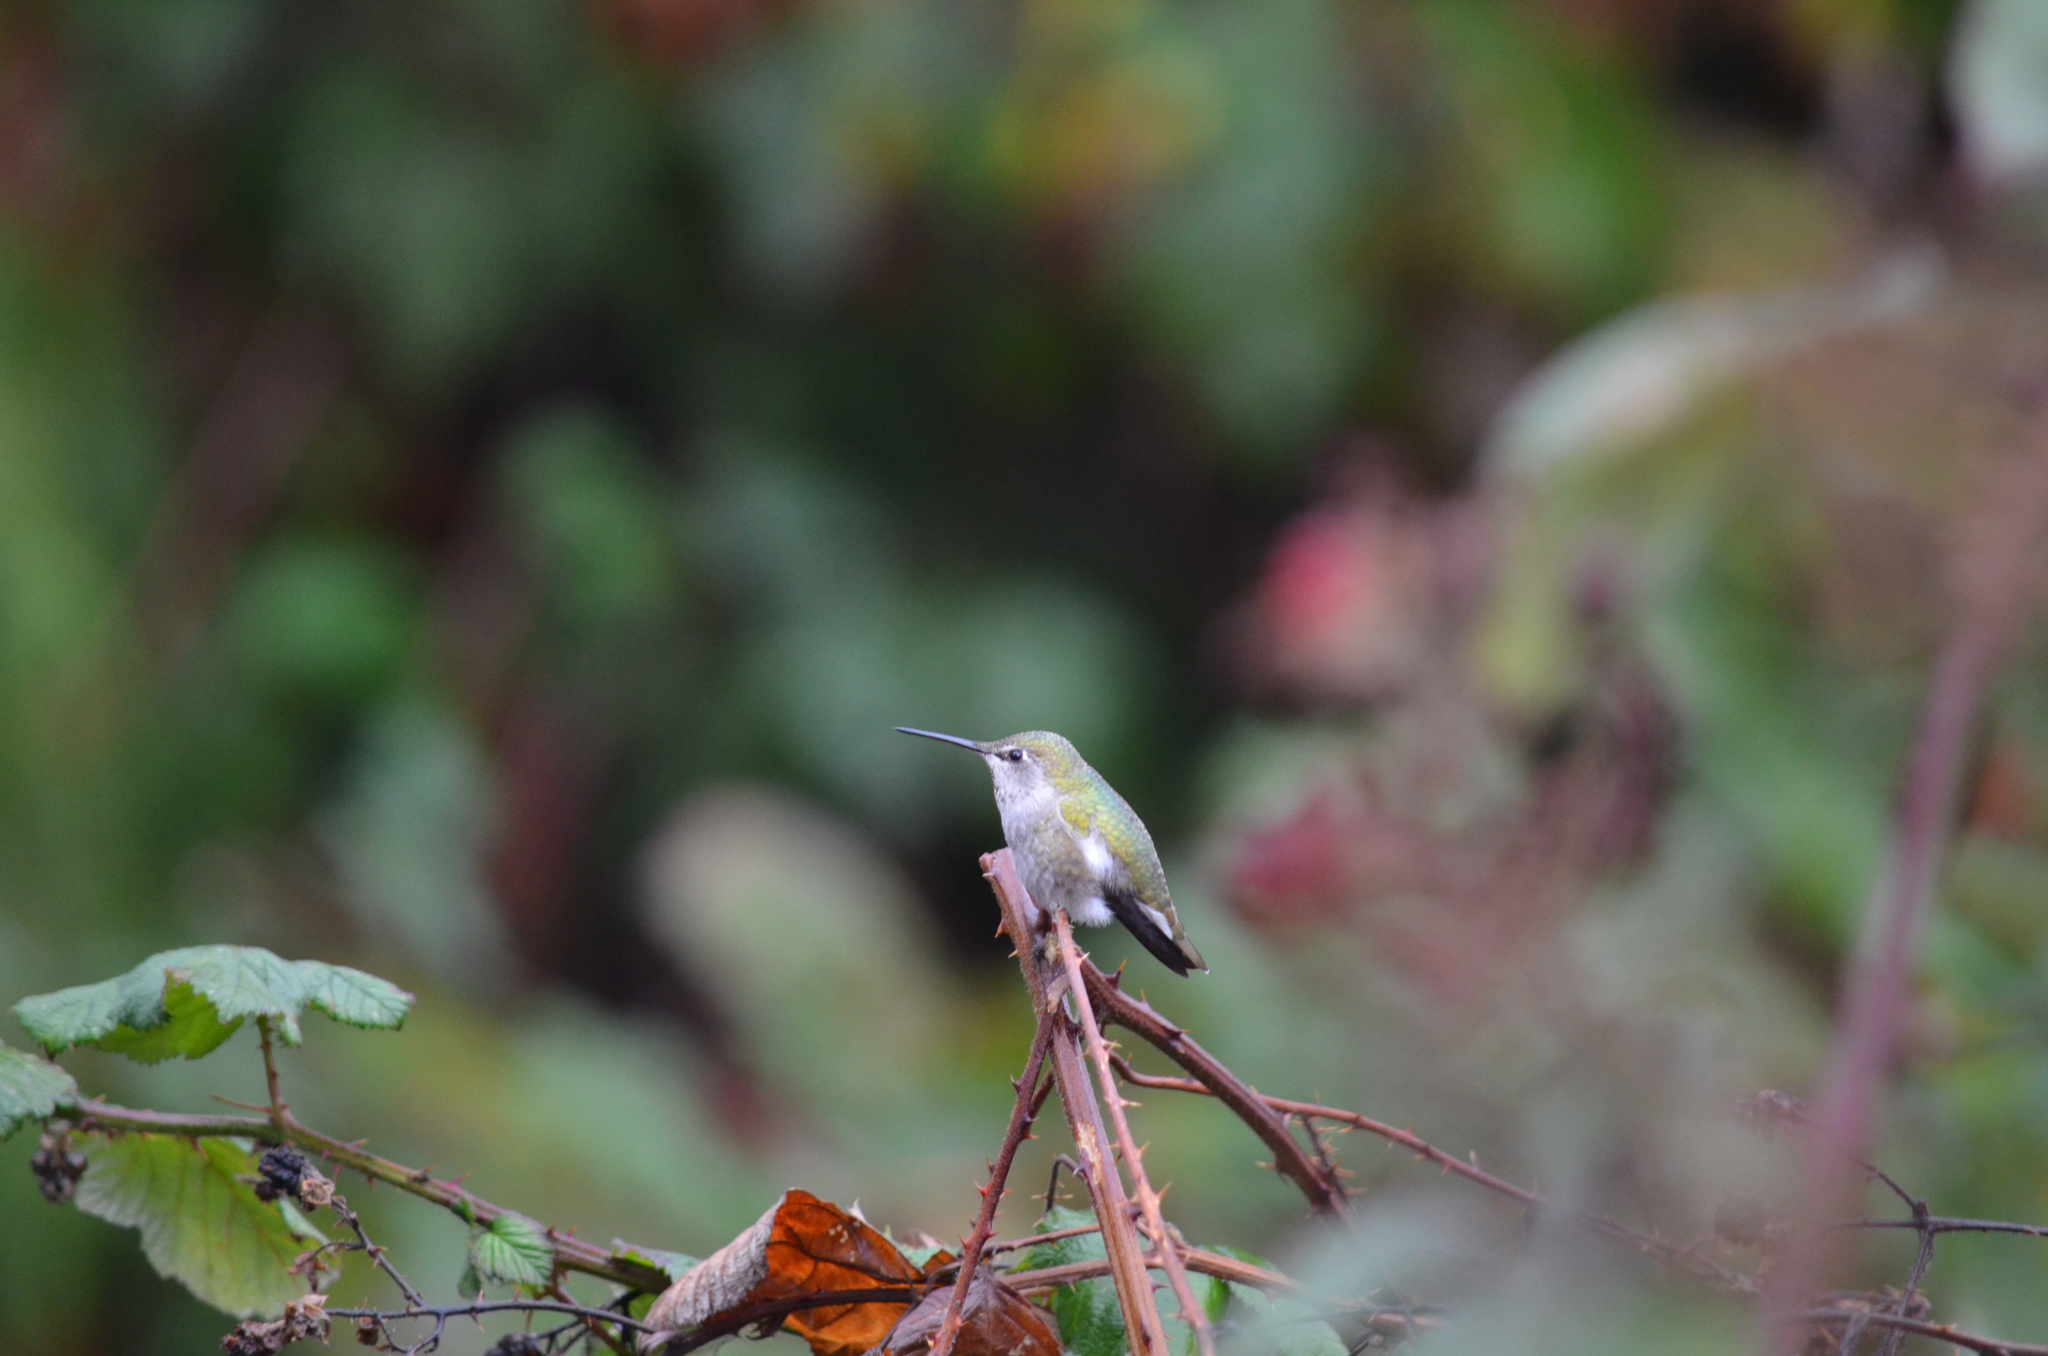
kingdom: Animalia
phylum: Chordata
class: Aves
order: Apodiformes
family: Trochilidae
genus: Calypte
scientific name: Calypte anna
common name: Anna's hummingbird
